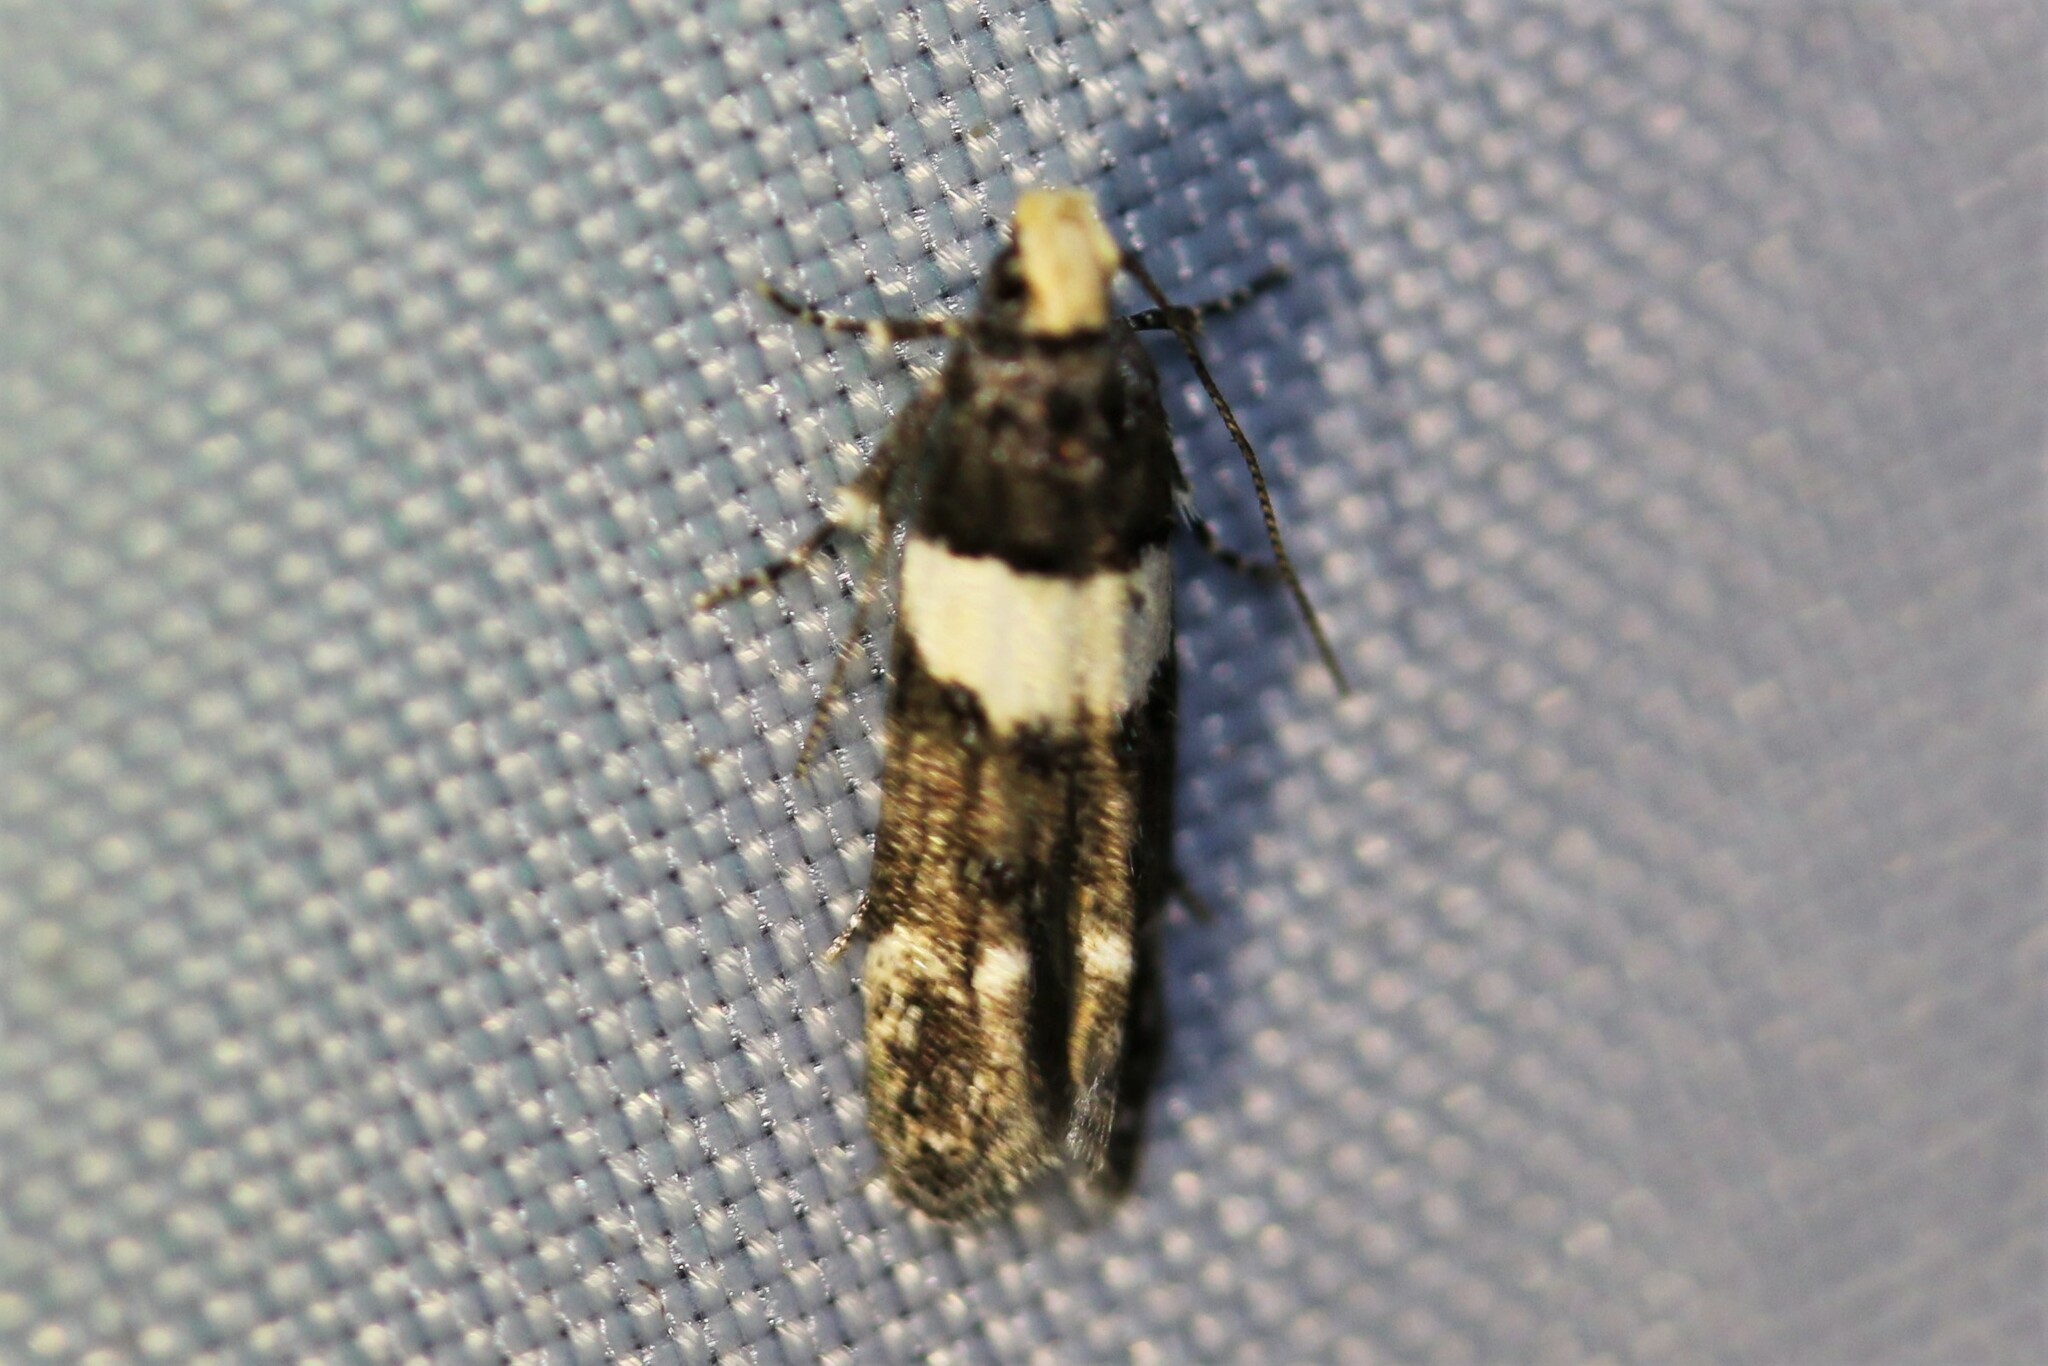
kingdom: Animalia
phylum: Arthropoda
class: Insecta
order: Lepidoptera
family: Gelechiidae
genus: Recurvaria
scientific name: Recurvaria leucatella
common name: White-barred groundling
